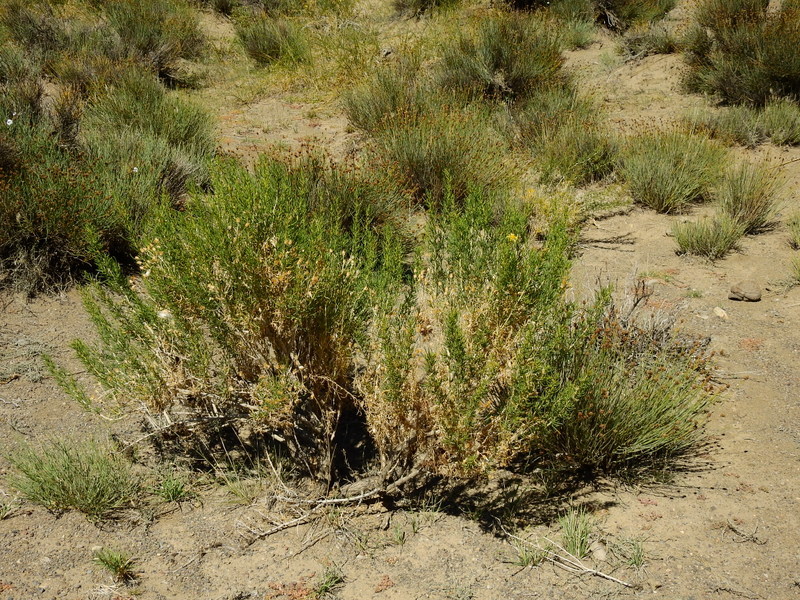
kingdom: Plantae
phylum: Tracheophyta
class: Magnoliopsida
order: Asterales
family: Asteraceae
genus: Senecio
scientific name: Senecio subulatus
